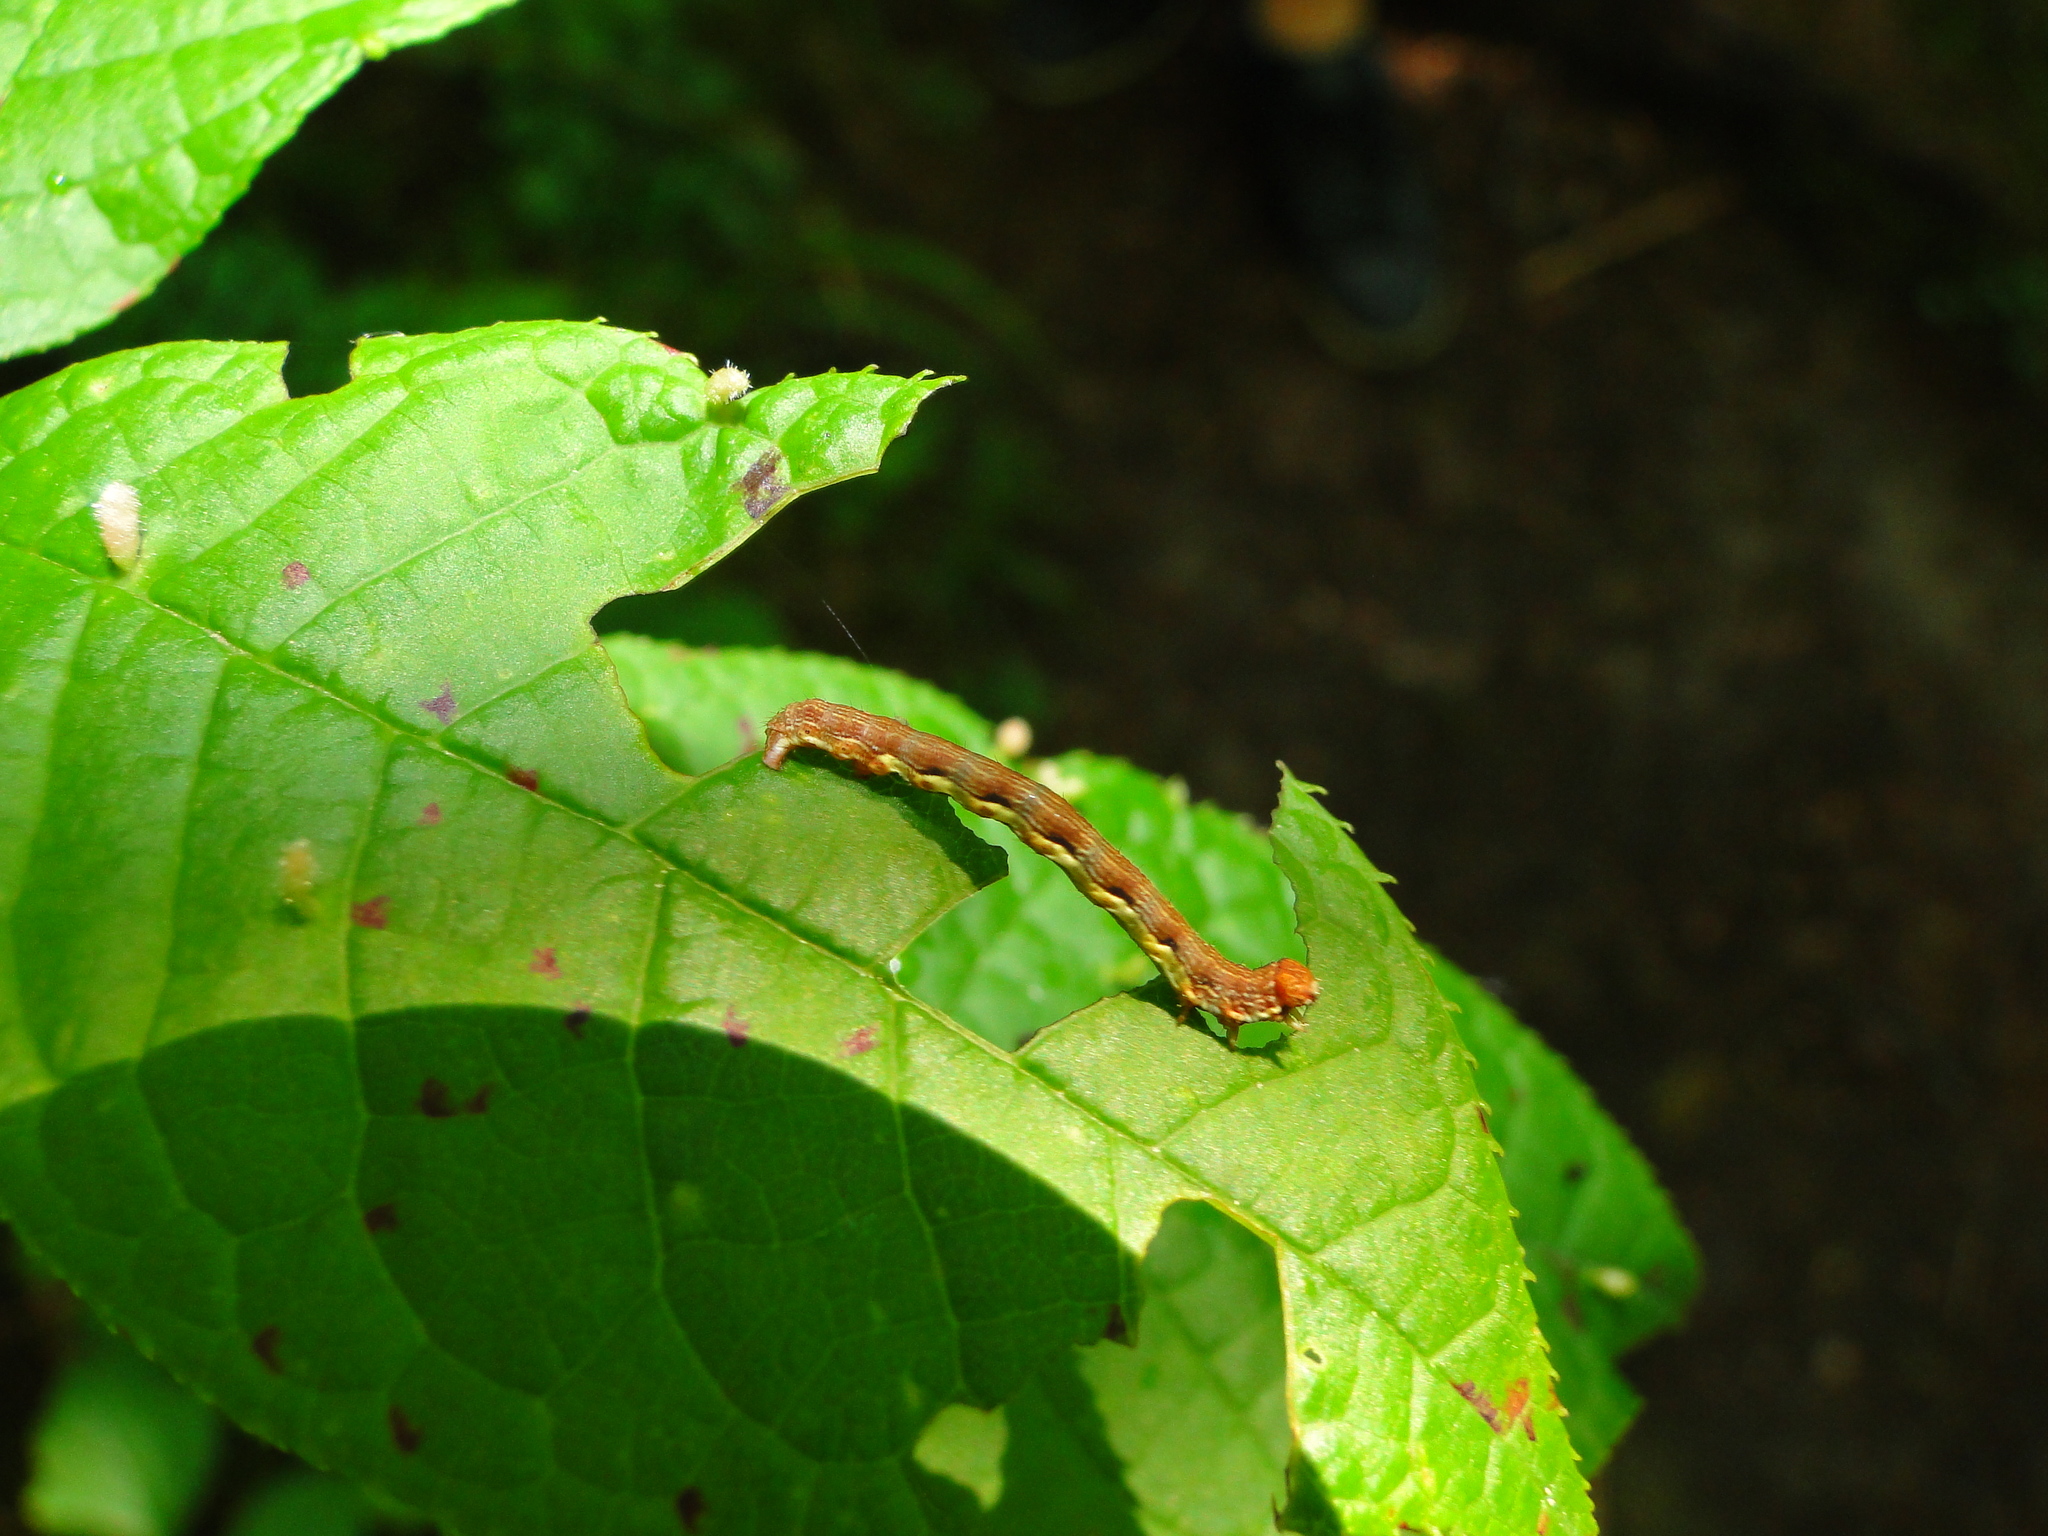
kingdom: Animalia
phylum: Arthropoda
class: Insecta
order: Lepidoptera
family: Geometridae
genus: Erannis
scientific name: Erannis defoliaria
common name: Mottled umber
